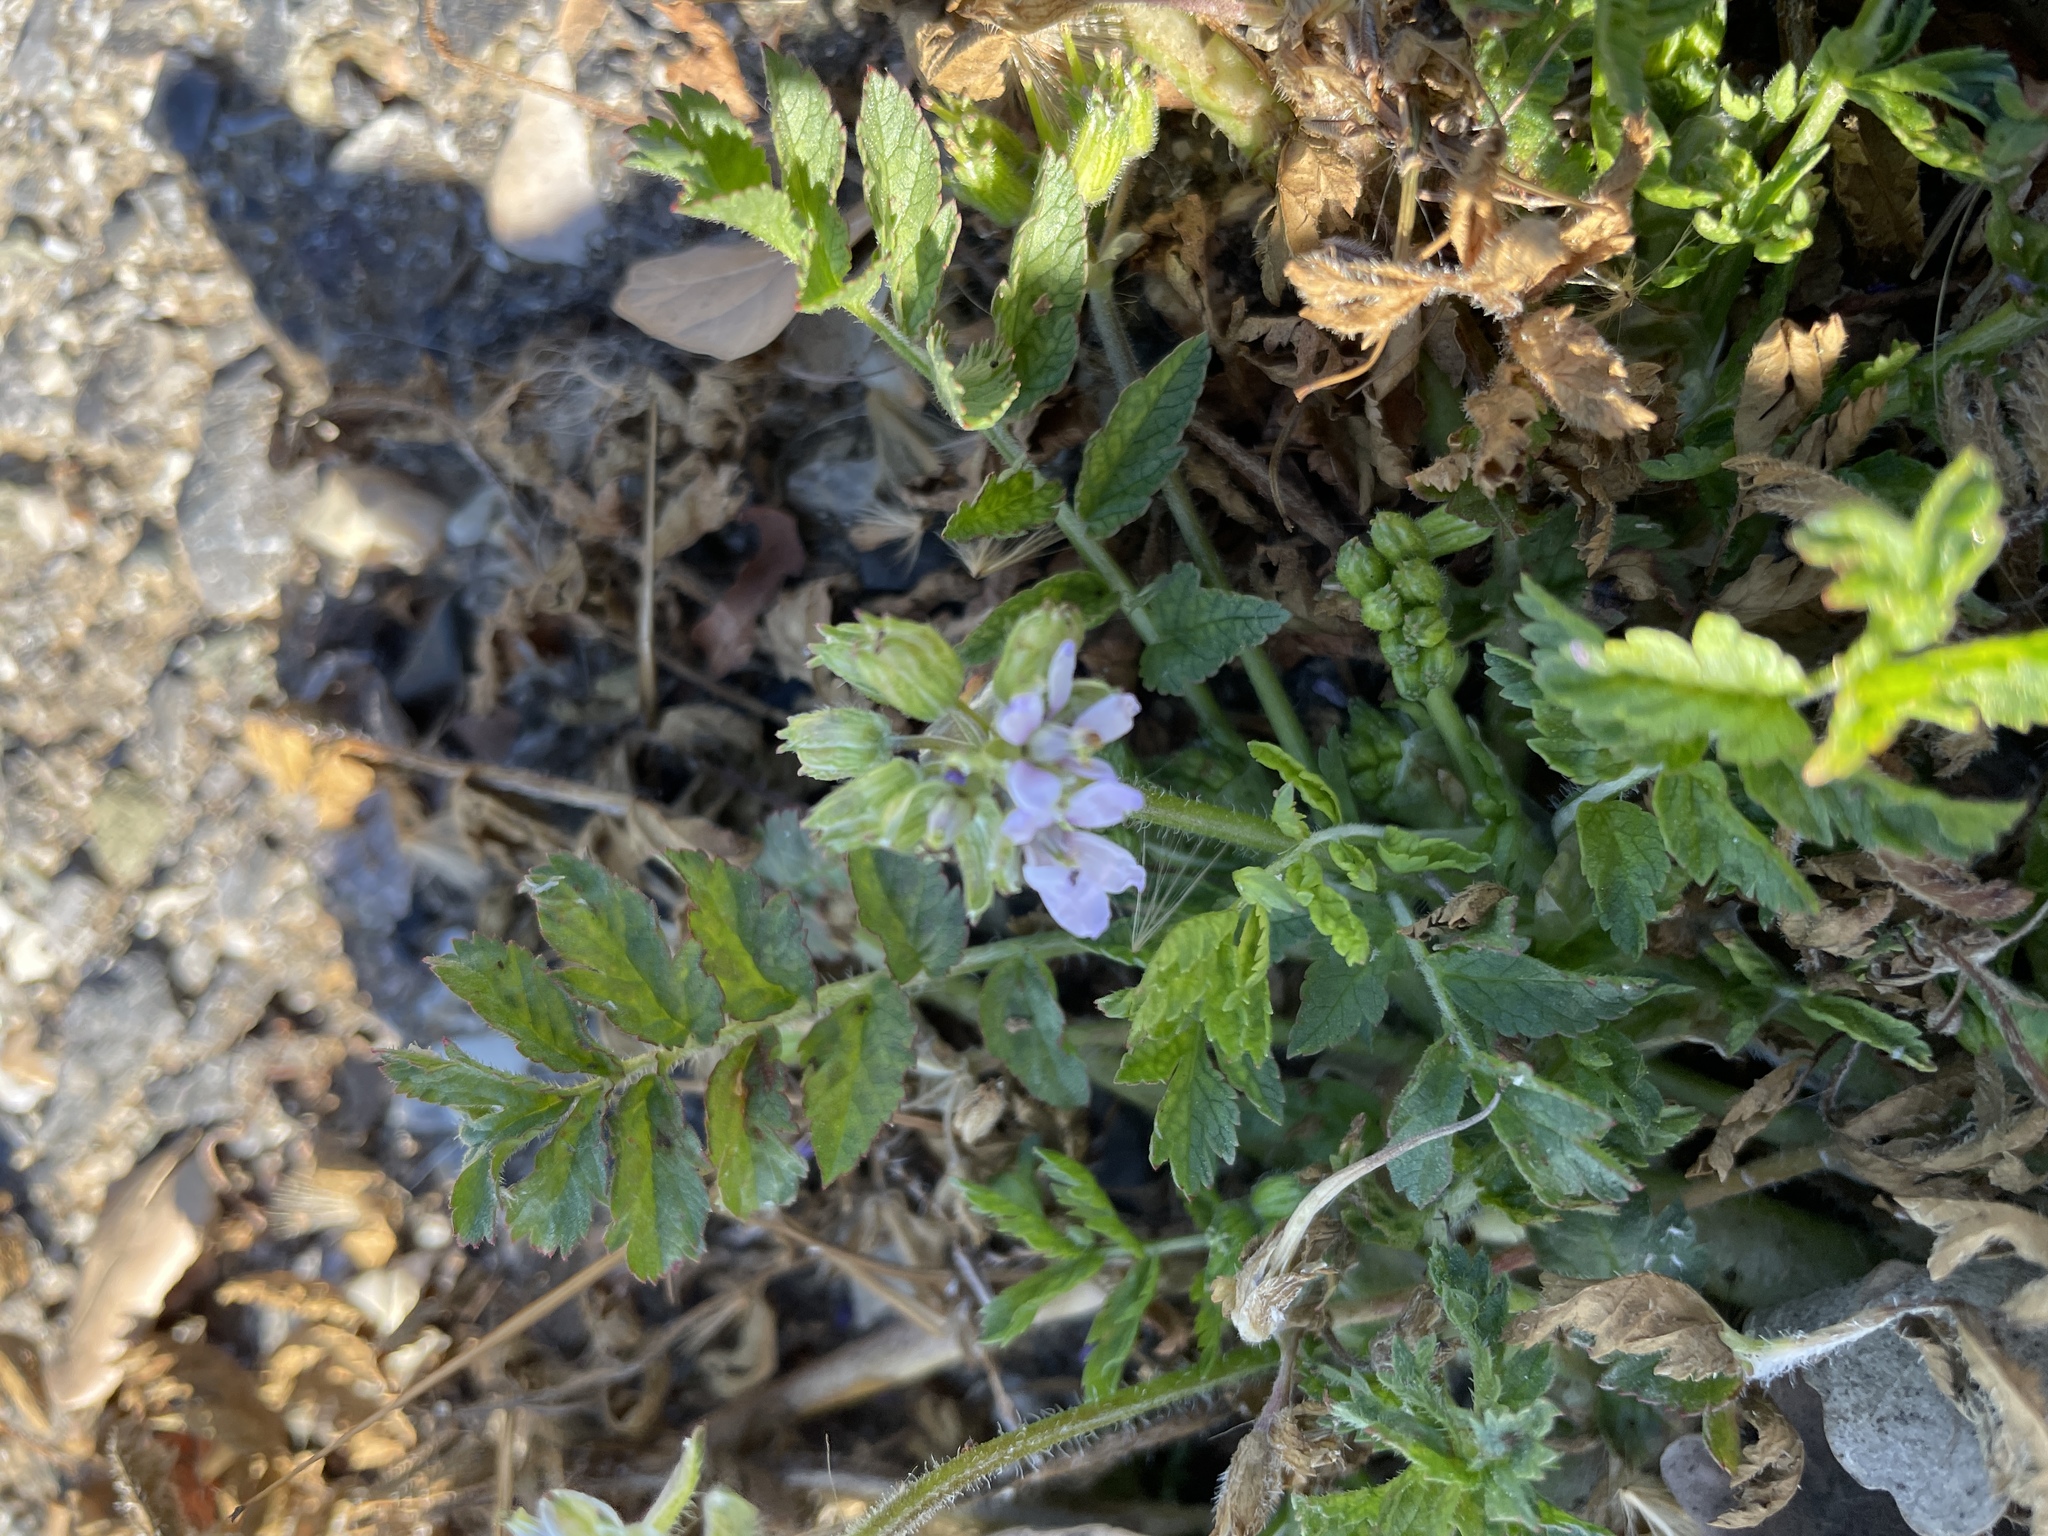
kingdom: Plantae
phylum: Tracheophyta
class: Magnoliopsida
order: Geraniales
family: Geraniaceae
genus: Erodium
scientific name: Erodium moschatum
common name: Musk stork's-bill
